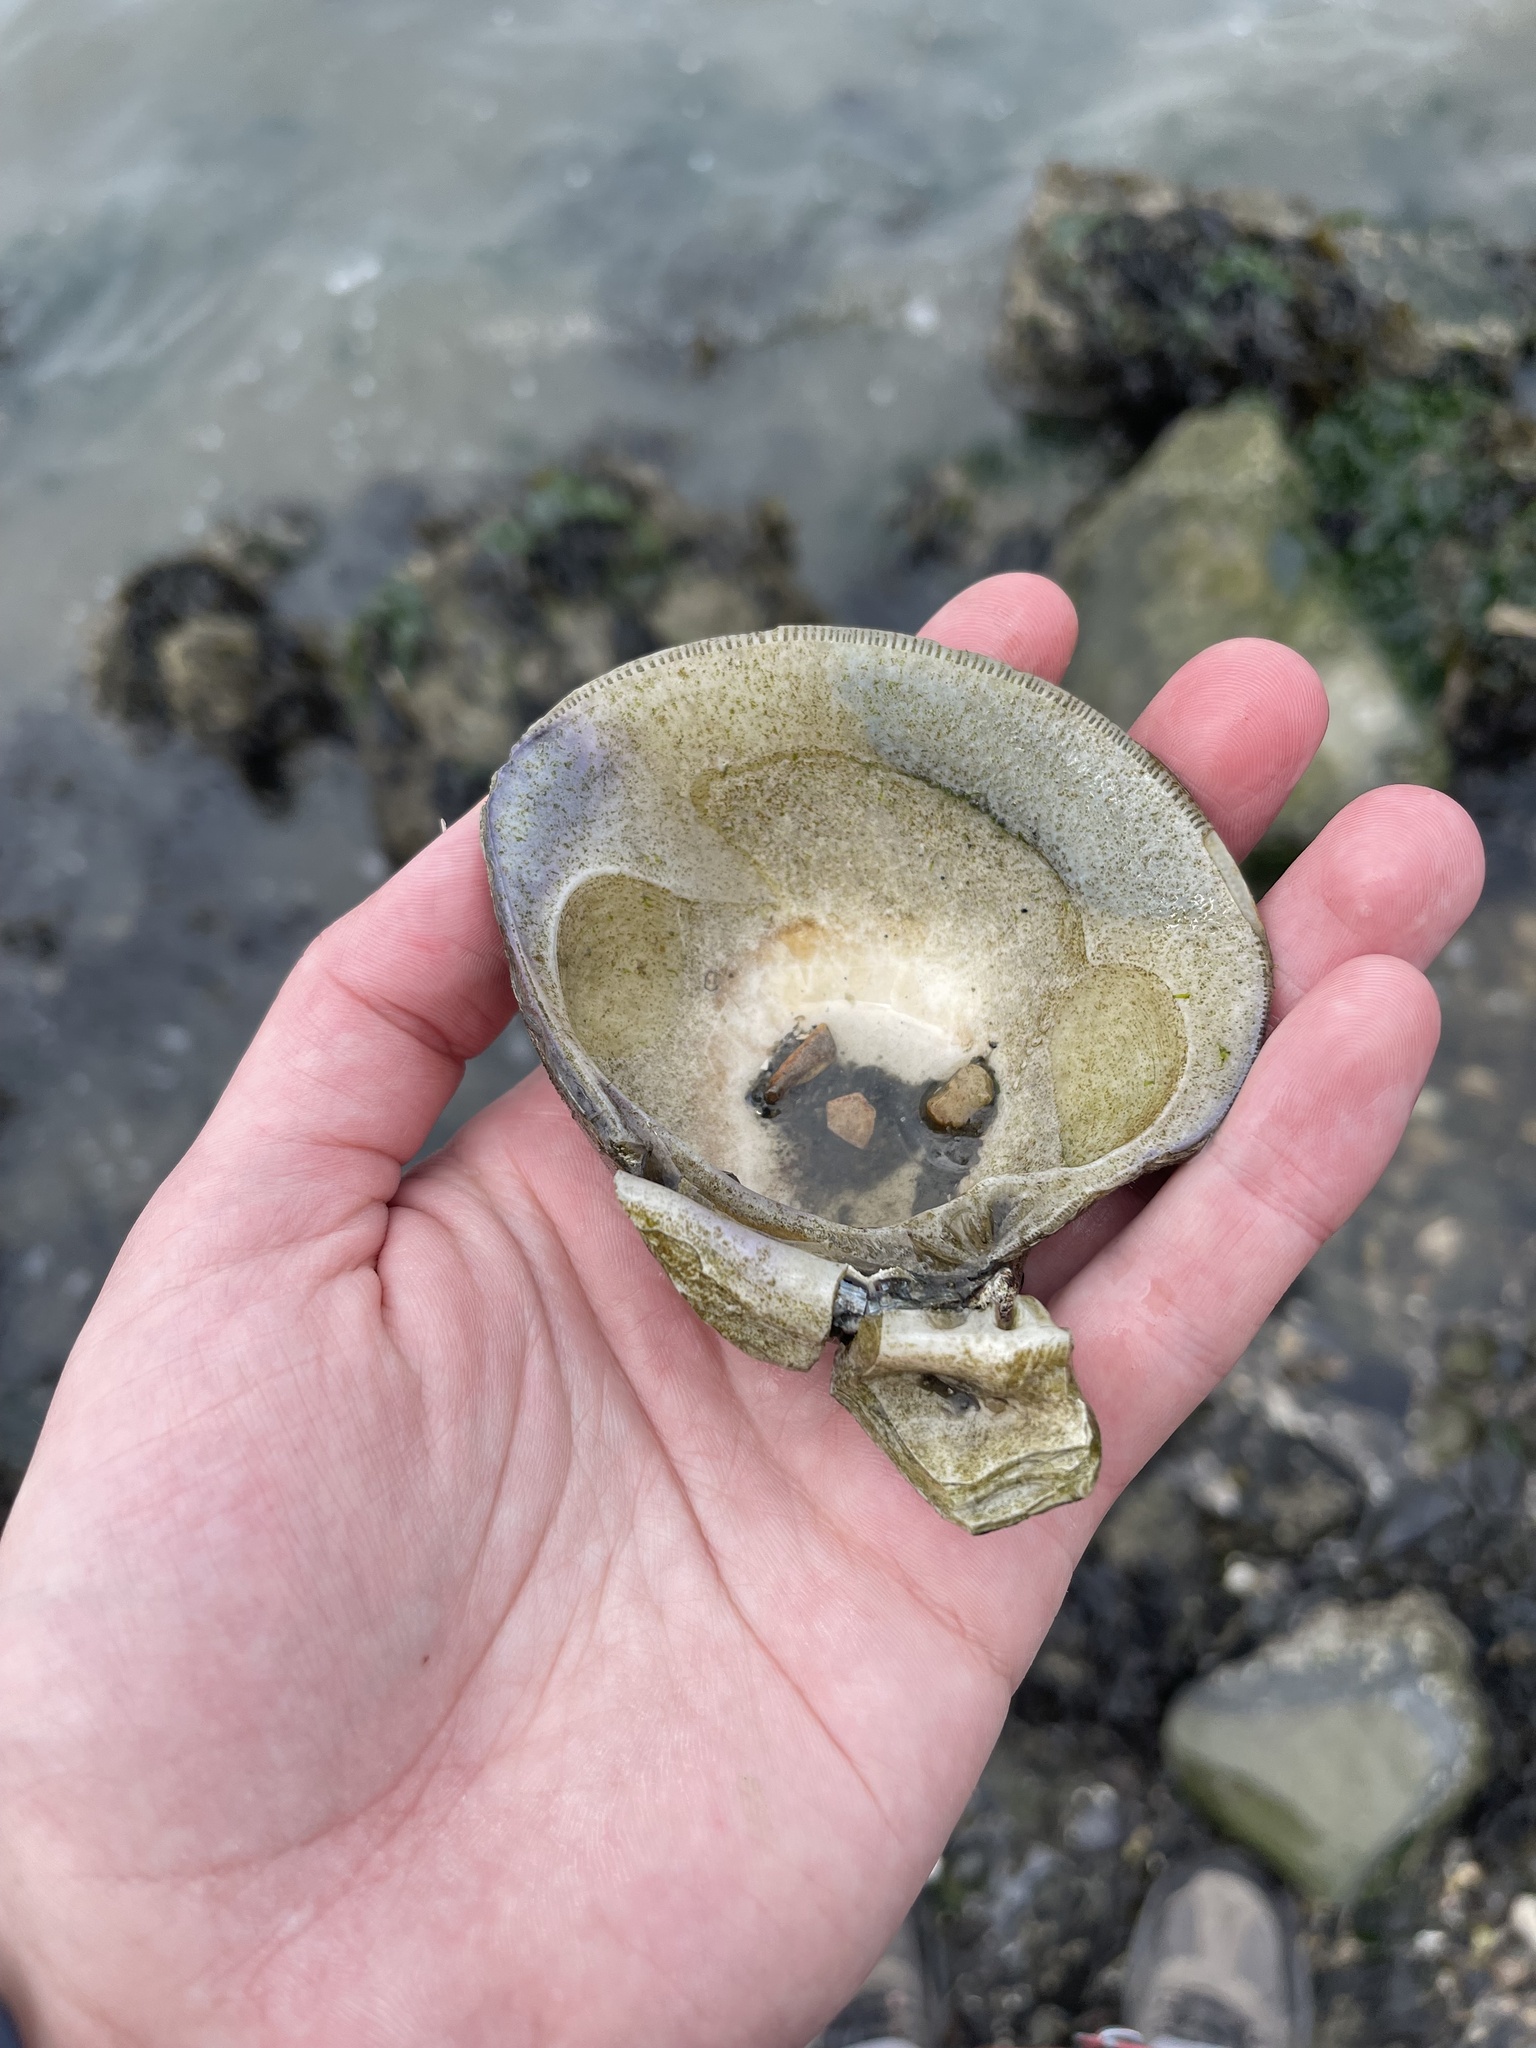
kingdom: Animalia
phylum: Mollusca
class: Bivalvia
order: Venerida
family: Veneridae
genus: Mercenaria
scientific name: Mercenaria mercenaria
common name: American hard-shelled clam
